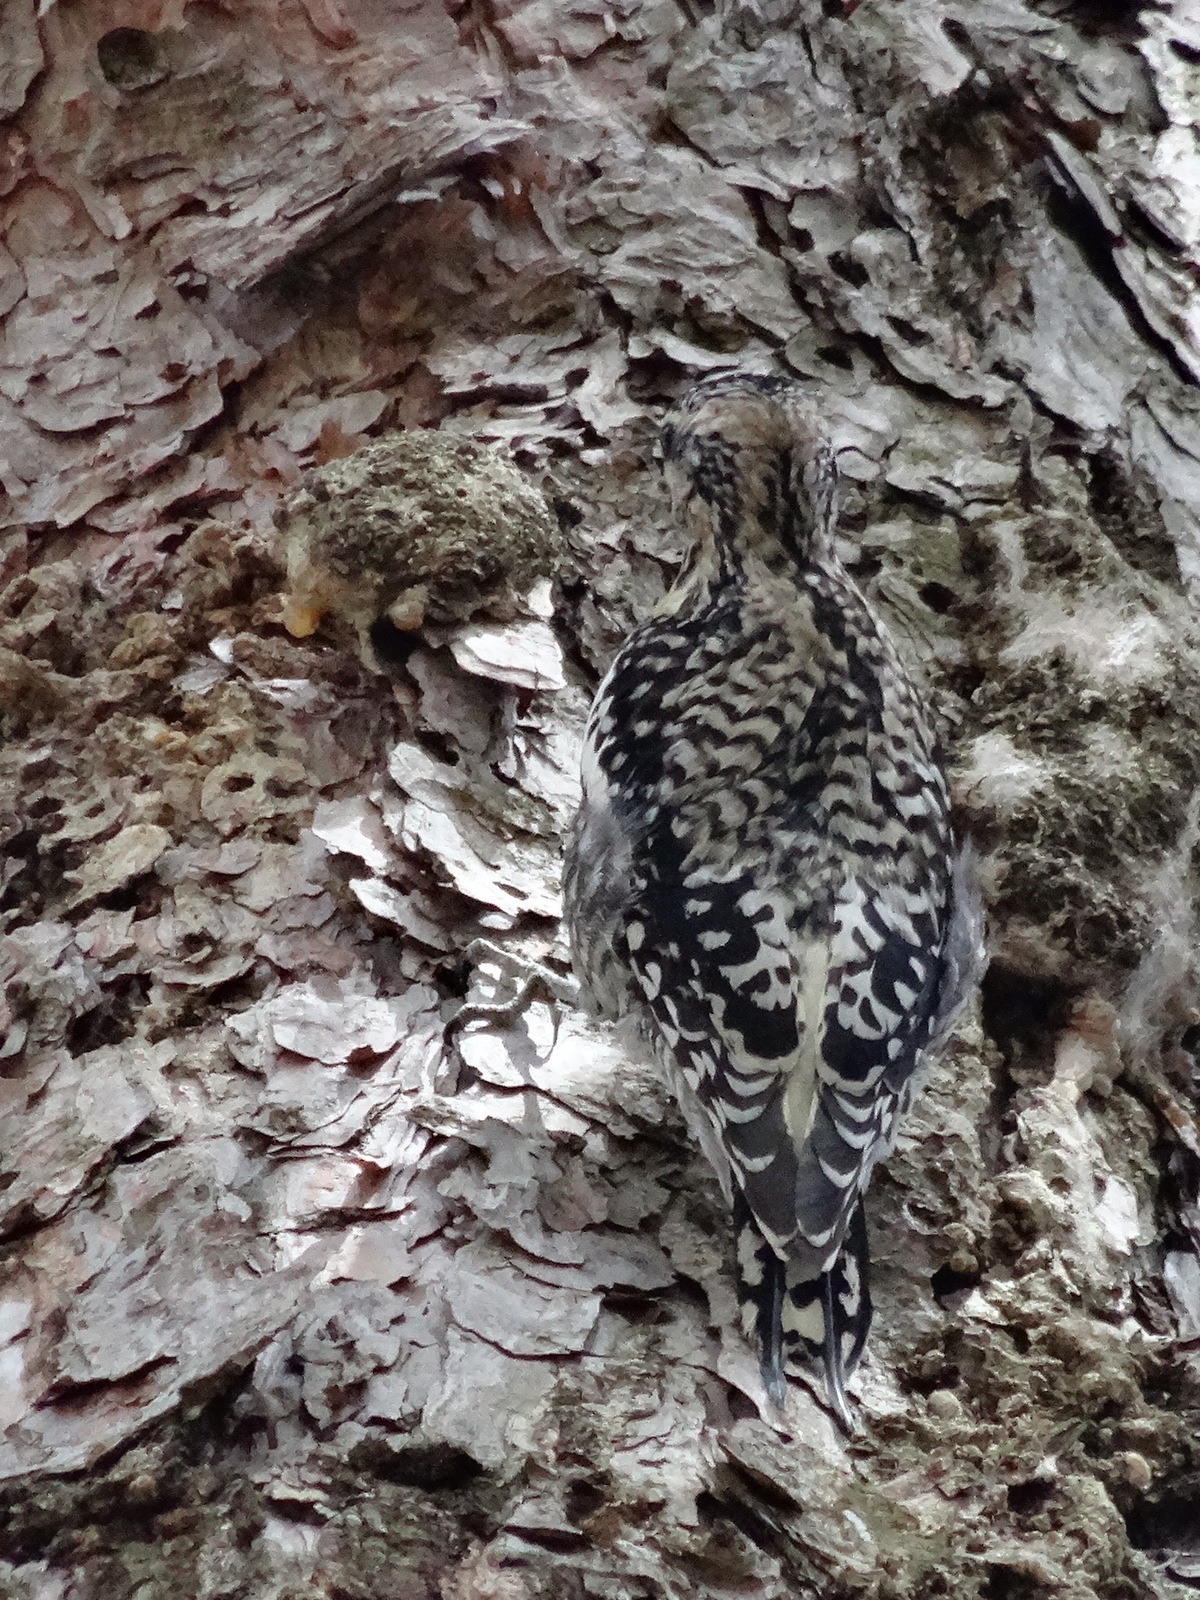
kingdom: Animalia
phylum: Chordata
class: Aves
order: Piciformes
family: Picidae
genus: Sphyrapicus
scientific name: Sphyrapicus varius
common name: Yellow-bellied sapsucker
